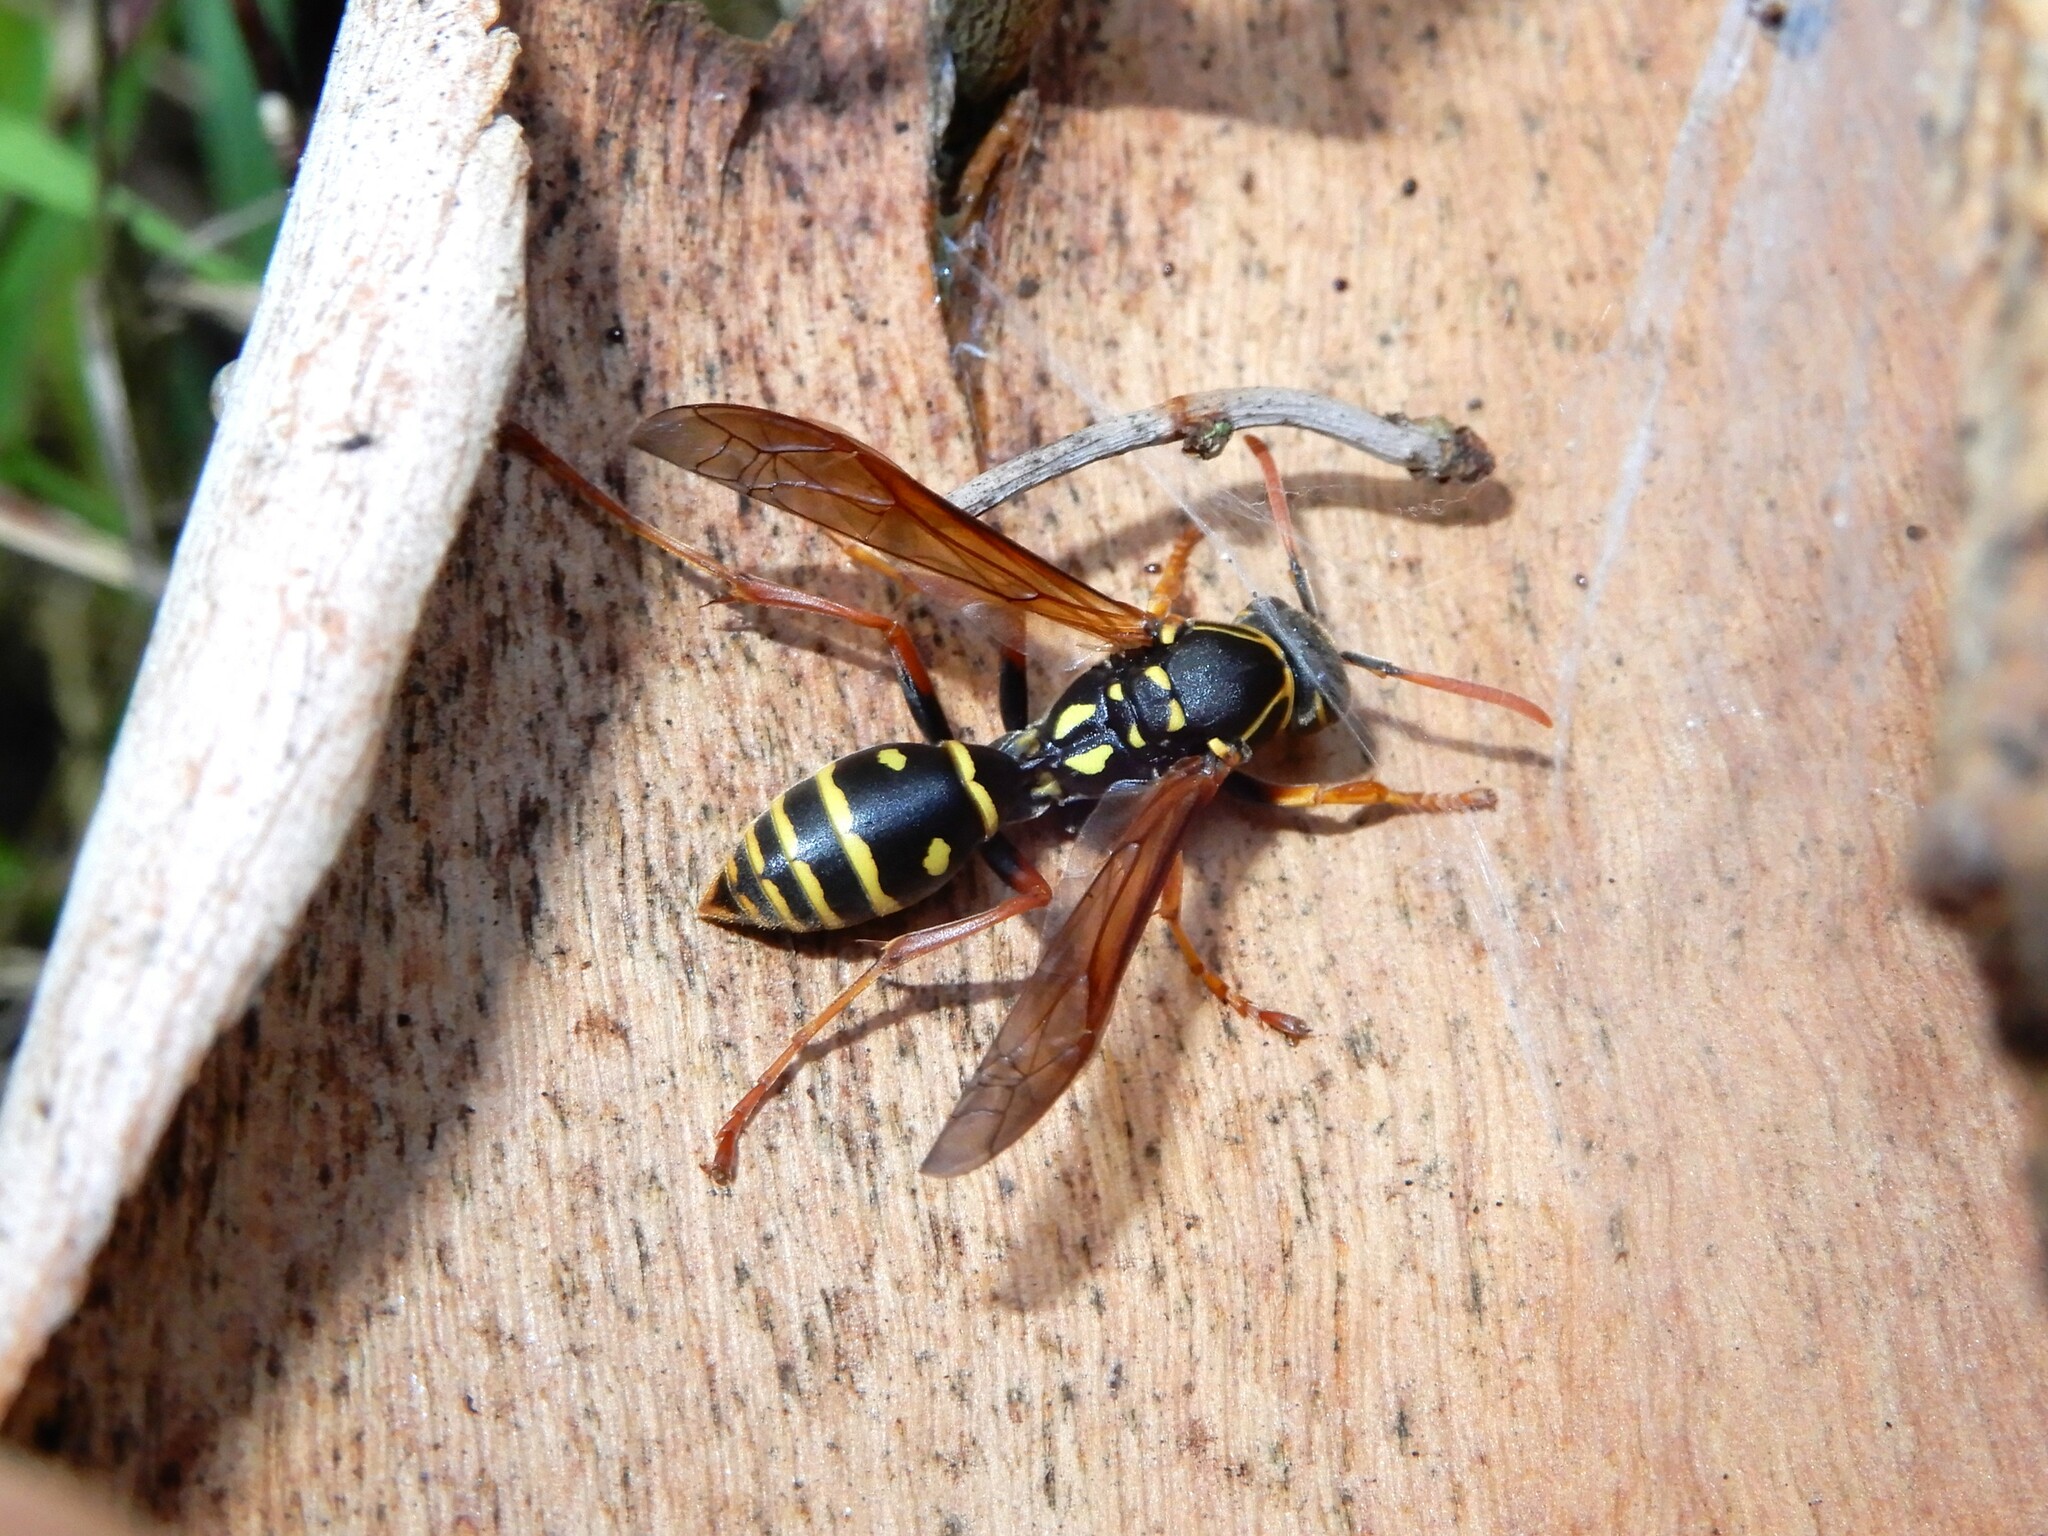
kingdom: Animalia
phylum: Arthropoda
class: Insecta
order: Hymenoptera
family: Eumenidae
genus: Polistes
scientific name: Polistes chinensis
